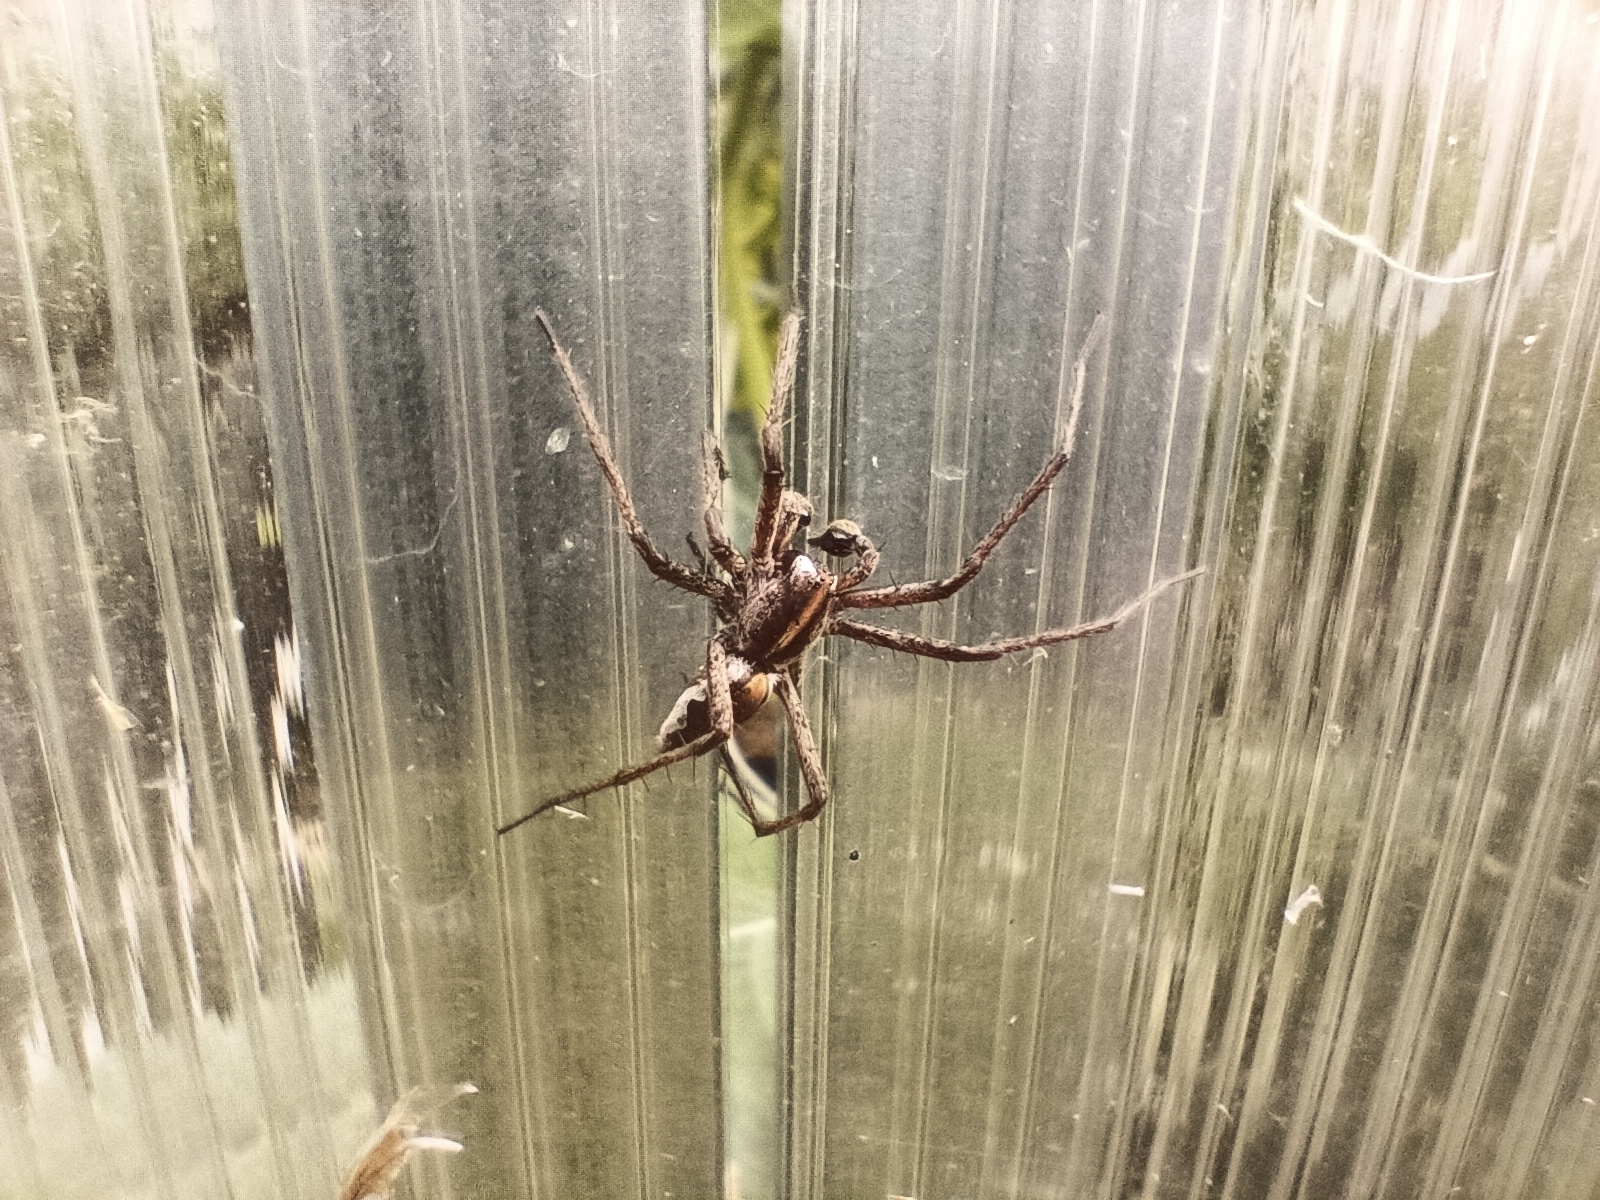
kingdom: Animalia
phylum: Arthropoda
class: Arachnida
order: Araneae
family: Pisauridae
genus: Pisaura
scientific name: Pisaura mirabilis
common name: Tent spider
